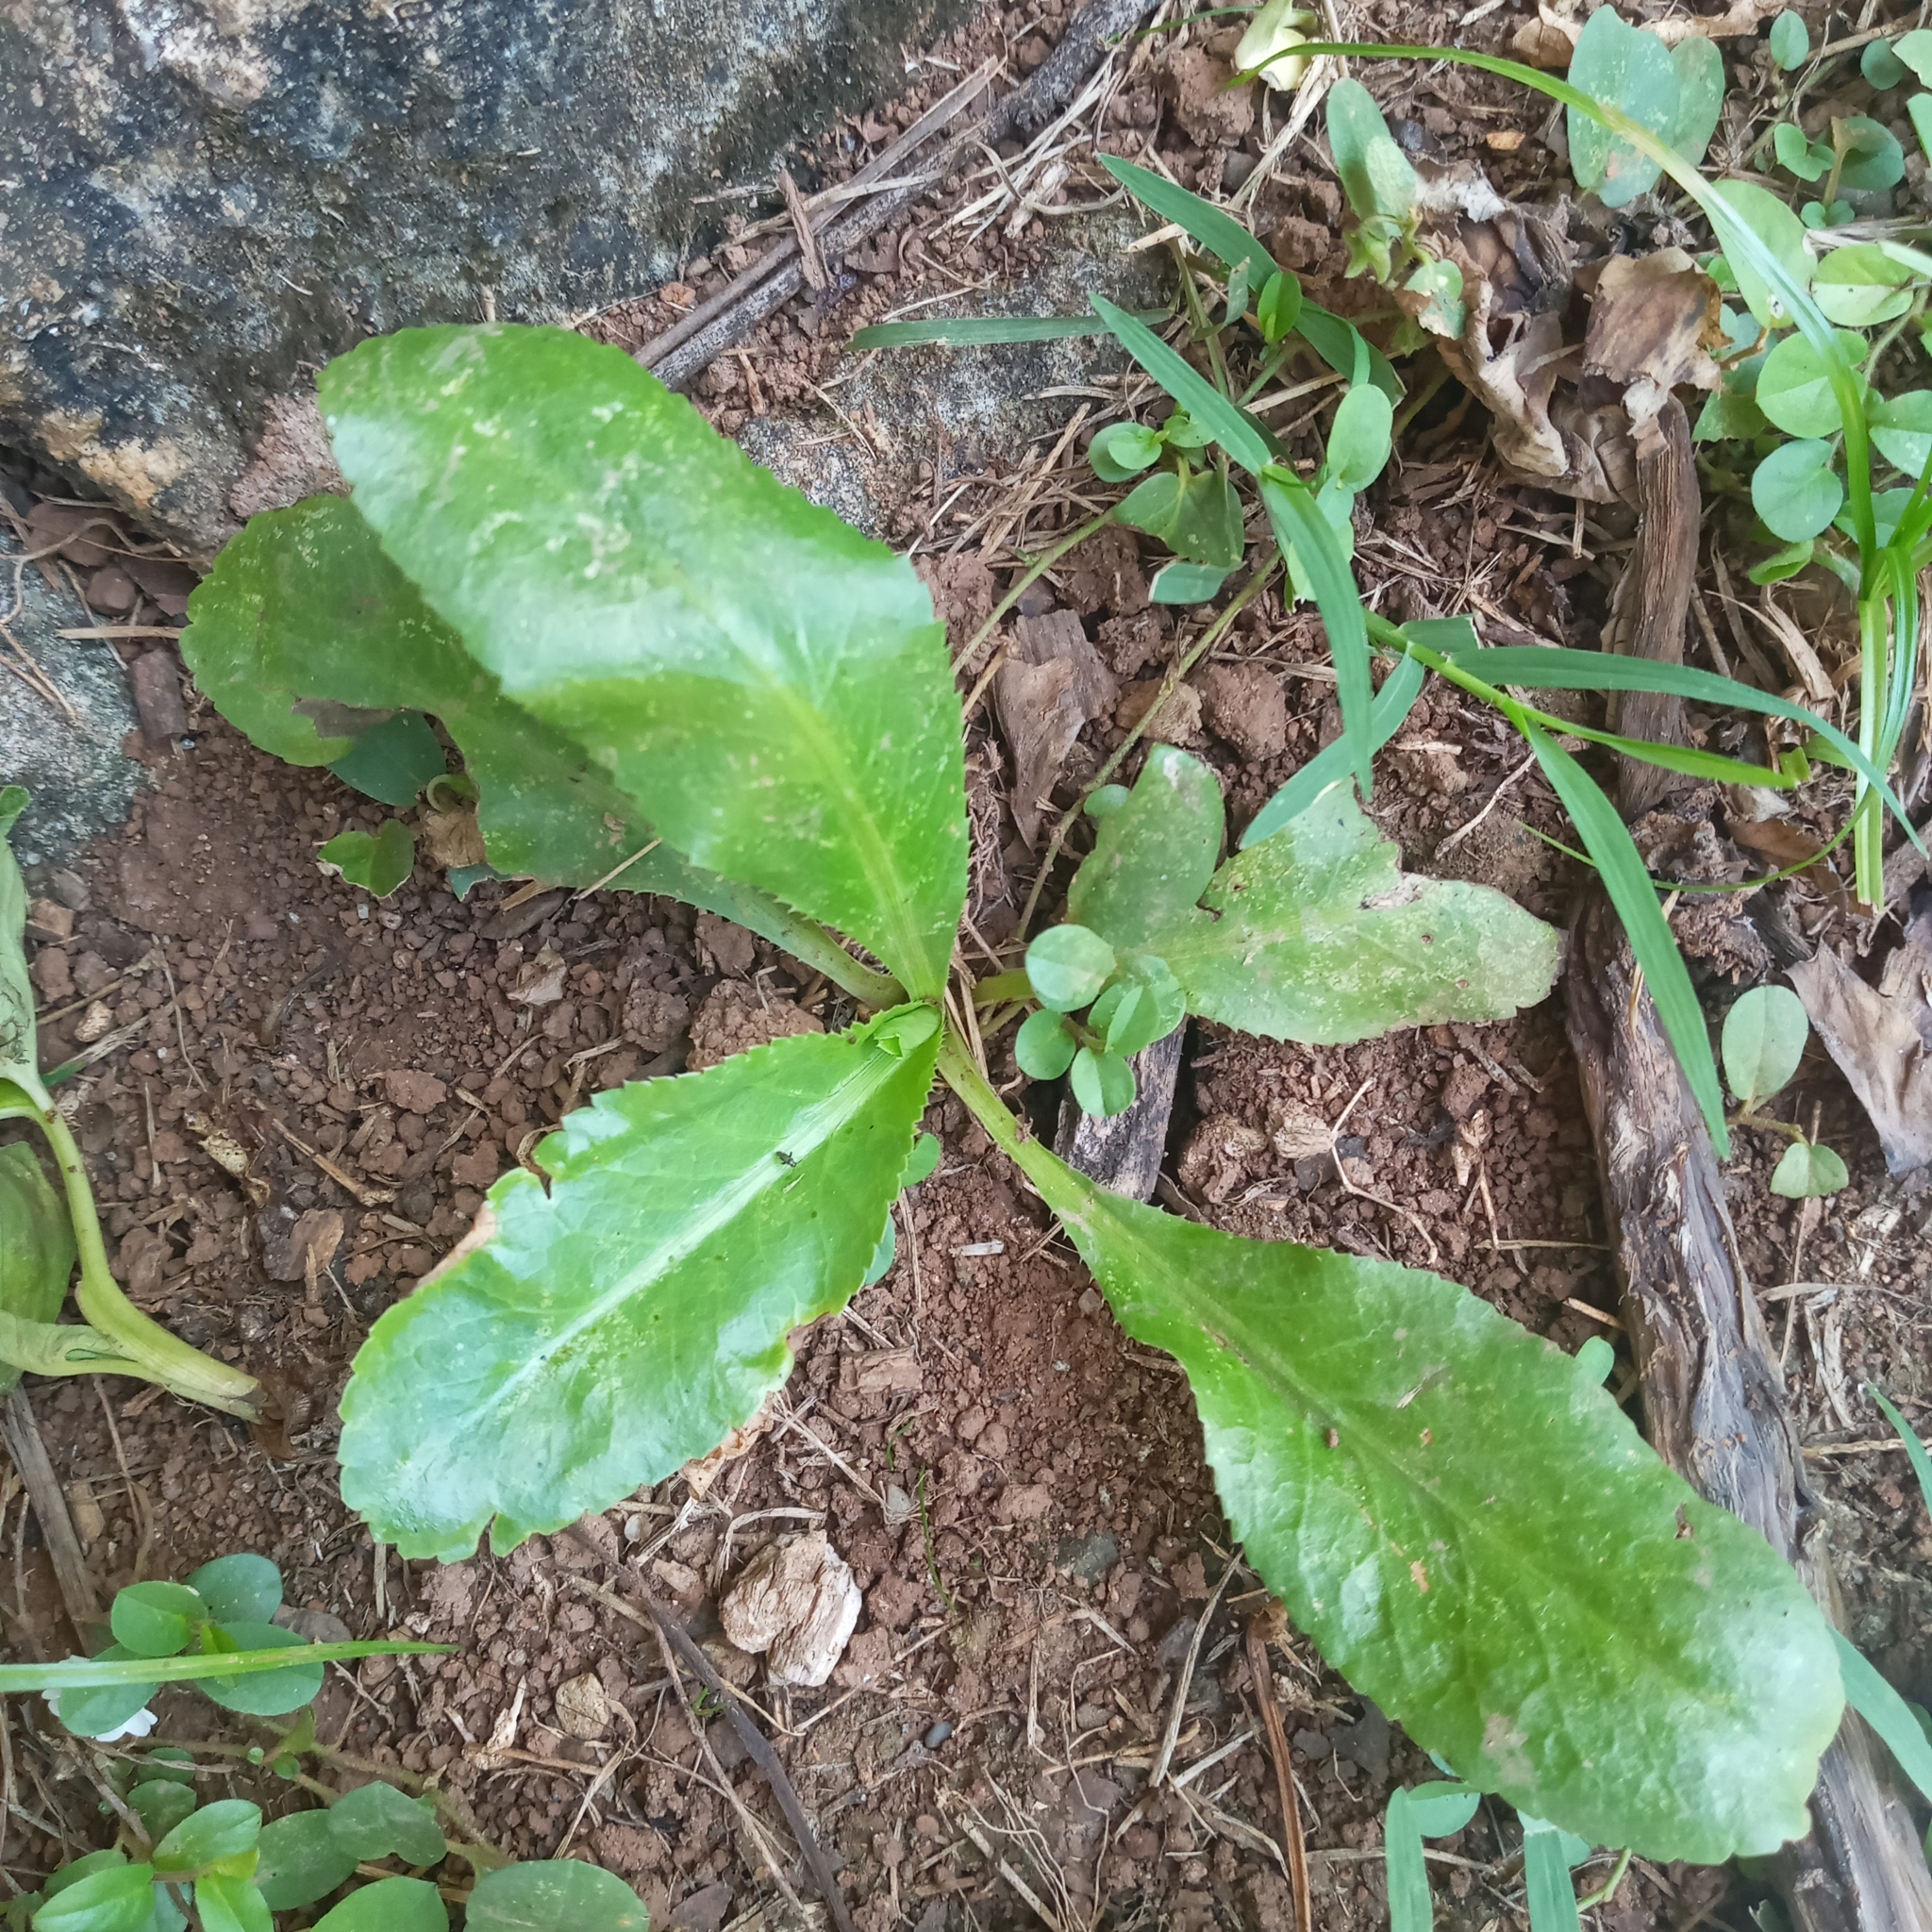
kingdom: Plantae
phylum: Tracheophyta
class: Magnoliopsida
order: Apiales
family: Apiaceae
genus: Eryngium
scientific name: Eryngium foetidum
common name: Fitweed
